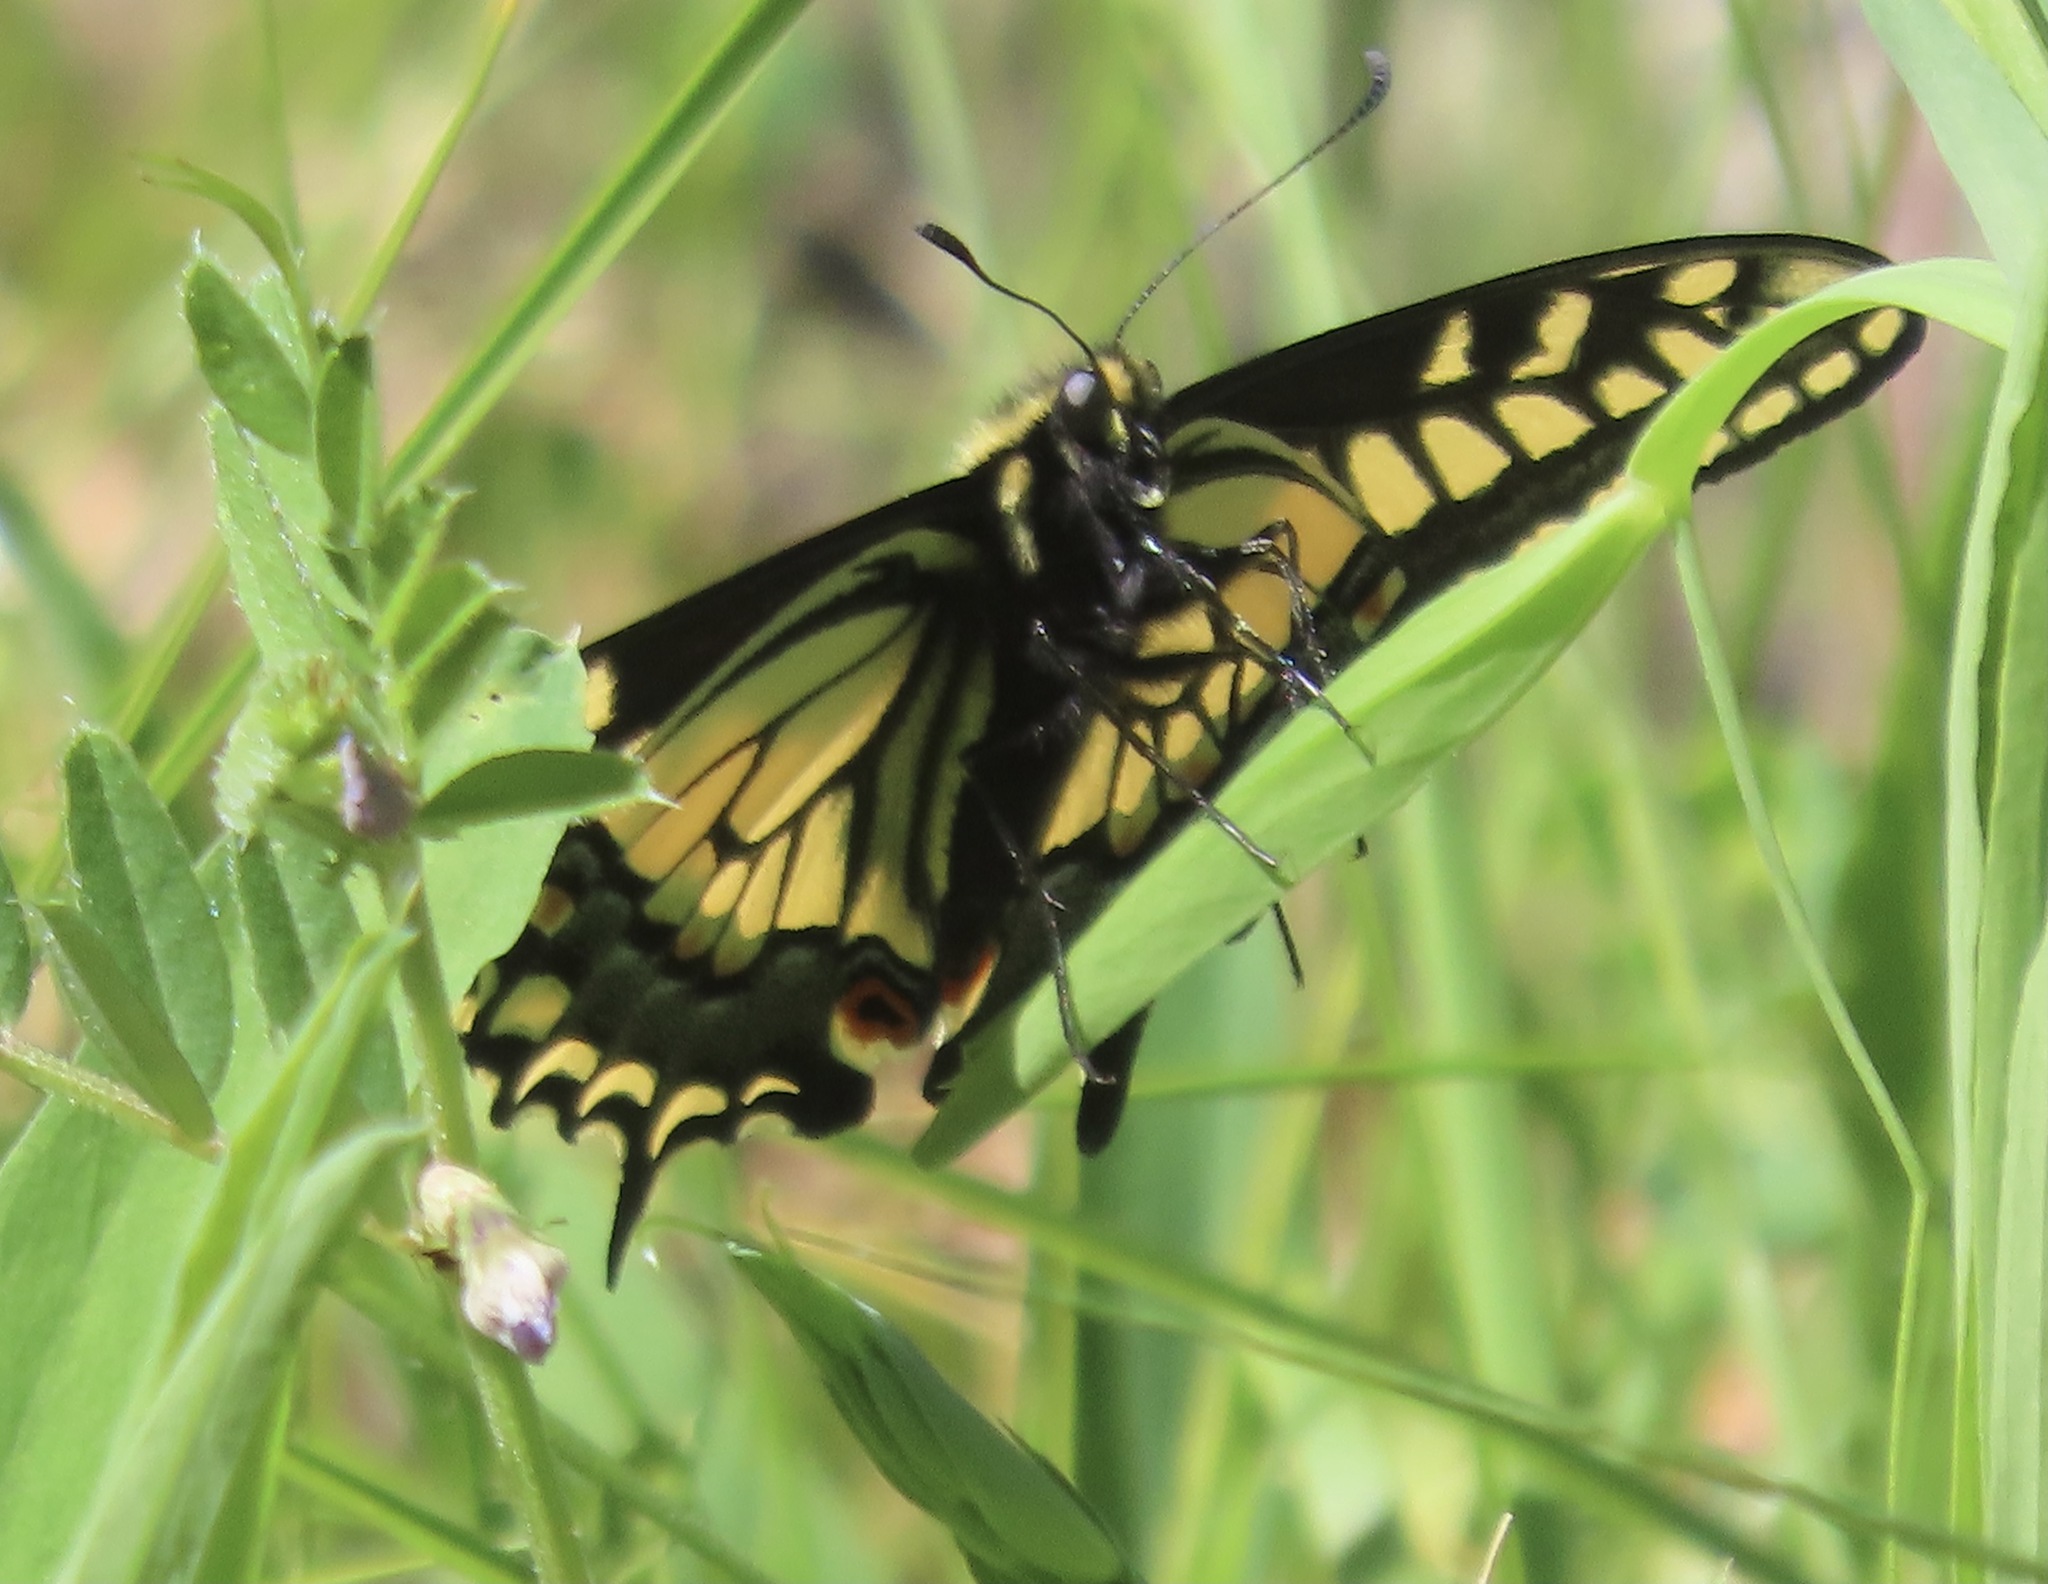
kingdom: Animalia
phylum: Arthropoda
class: Insecta
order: Lepidoptera
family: Papilionidae
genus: Papilio
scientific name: Papilio zelicaon
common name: Anise swallowtail
